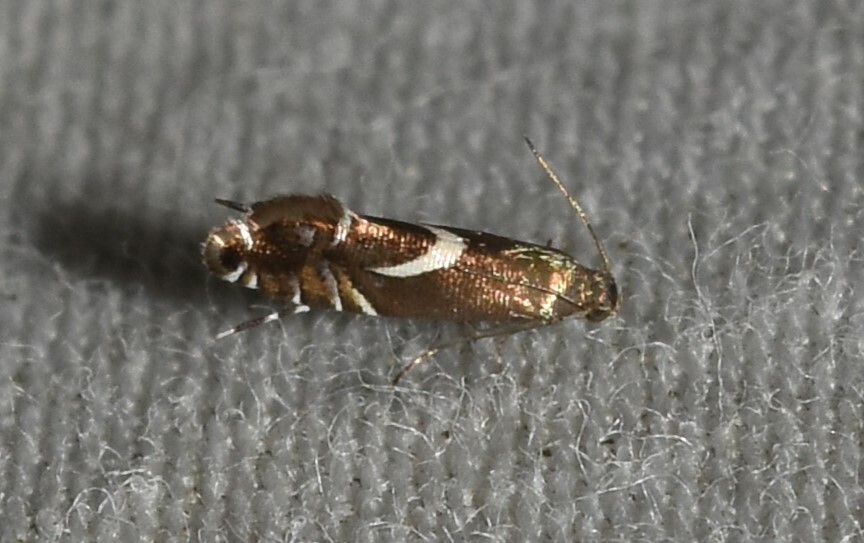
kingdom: Animalia
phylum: Arthropoda
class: Insecta
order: Lepidoptera
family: Glyphipterigidae
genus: Glyphipterix
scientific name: Glyphipterix Diploschizia impigritella
